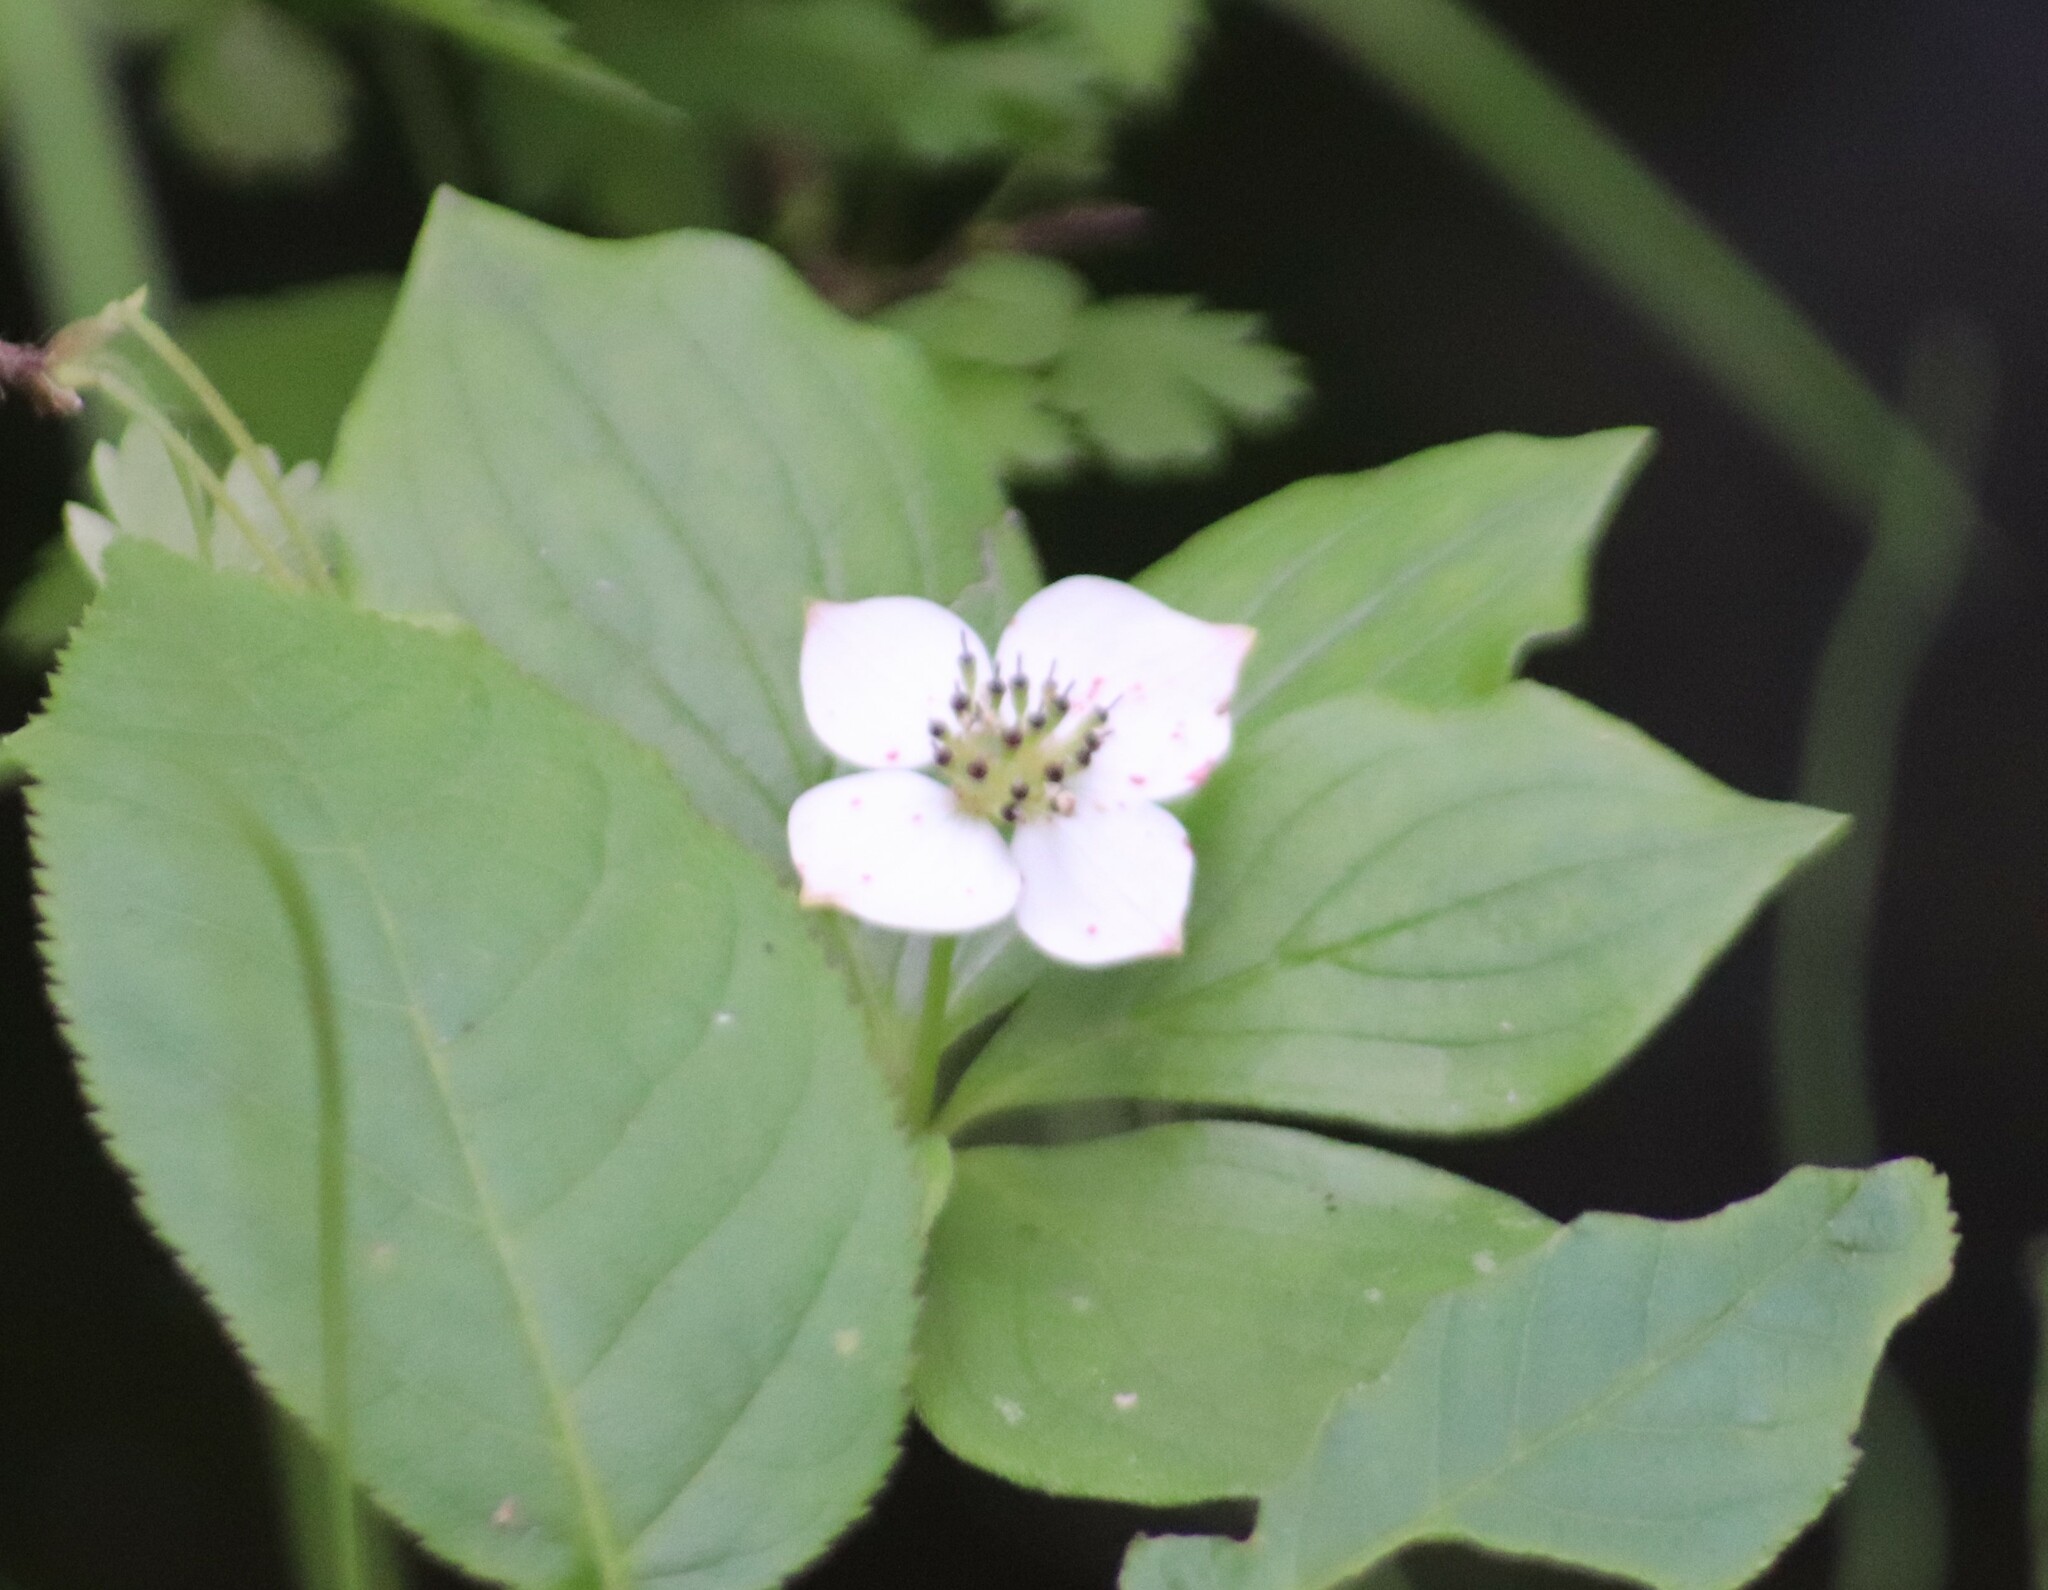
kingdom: Plantae
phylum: Tracheophyta
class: Magnoliopsida
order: Cornales
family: Cornaceae
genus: Cornus
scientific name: Cornus canadensis
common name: Creeping dogwood
